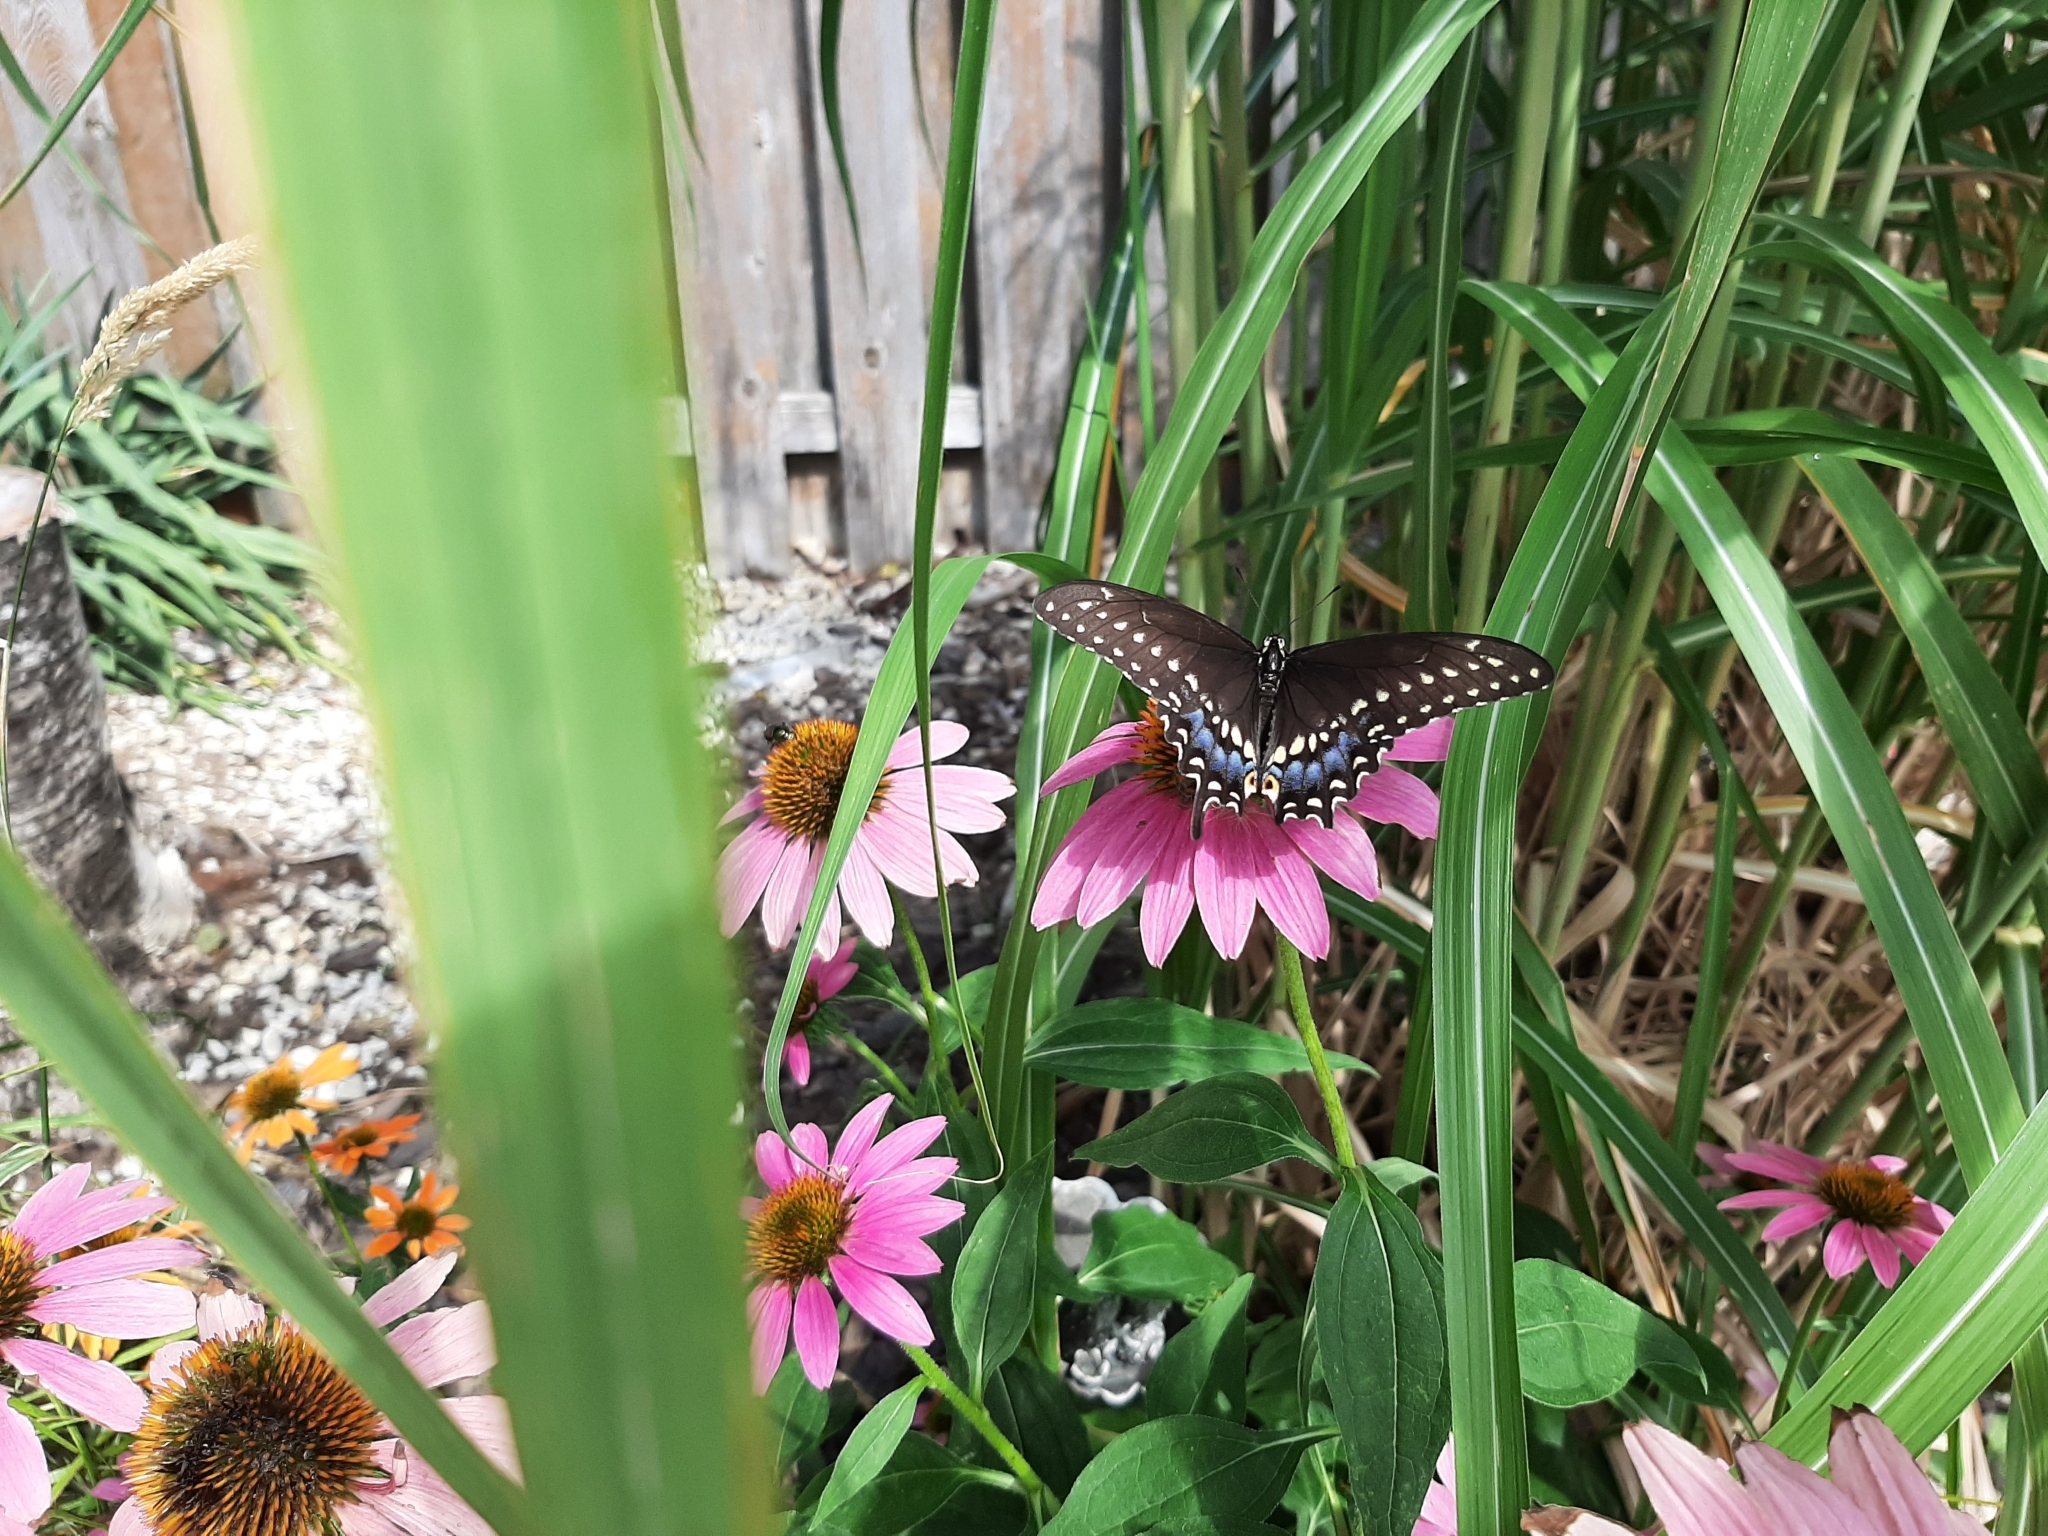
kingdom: Animalia
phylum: Arthropoda
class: Insecta
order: Lepidoptera
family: Papilionidae
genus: Papilio
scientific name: Papilio polyxenes
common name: Black swallowtail
